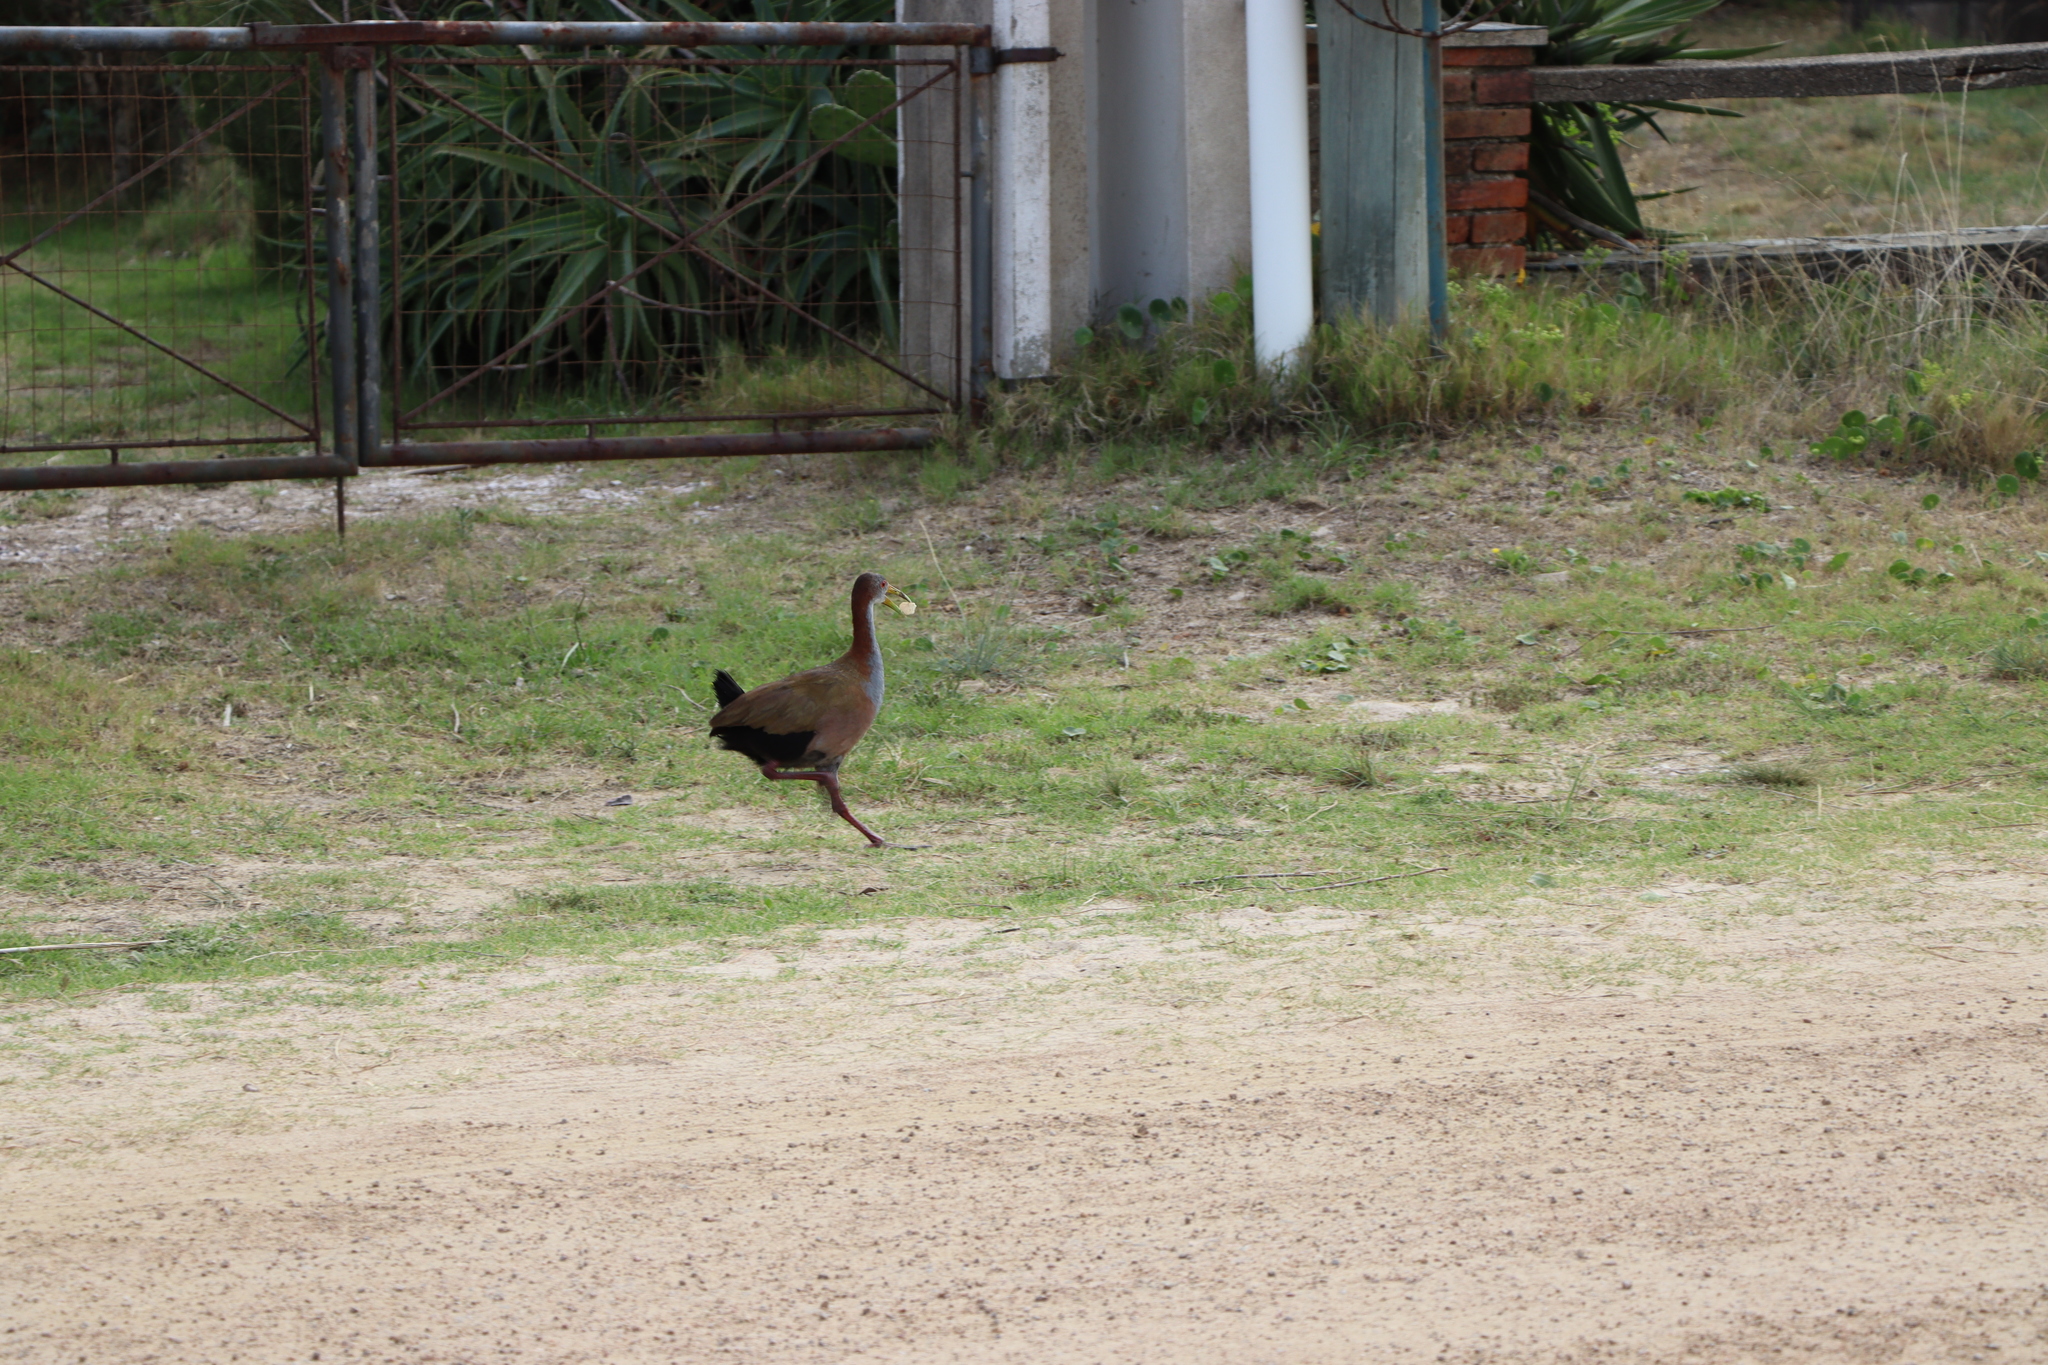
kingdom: Animalia
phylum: Chordata
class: Aves
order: Gruiformes
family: Rallidae
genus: Aramides
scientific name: Aramides ypecaha
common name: Giant wood rail
